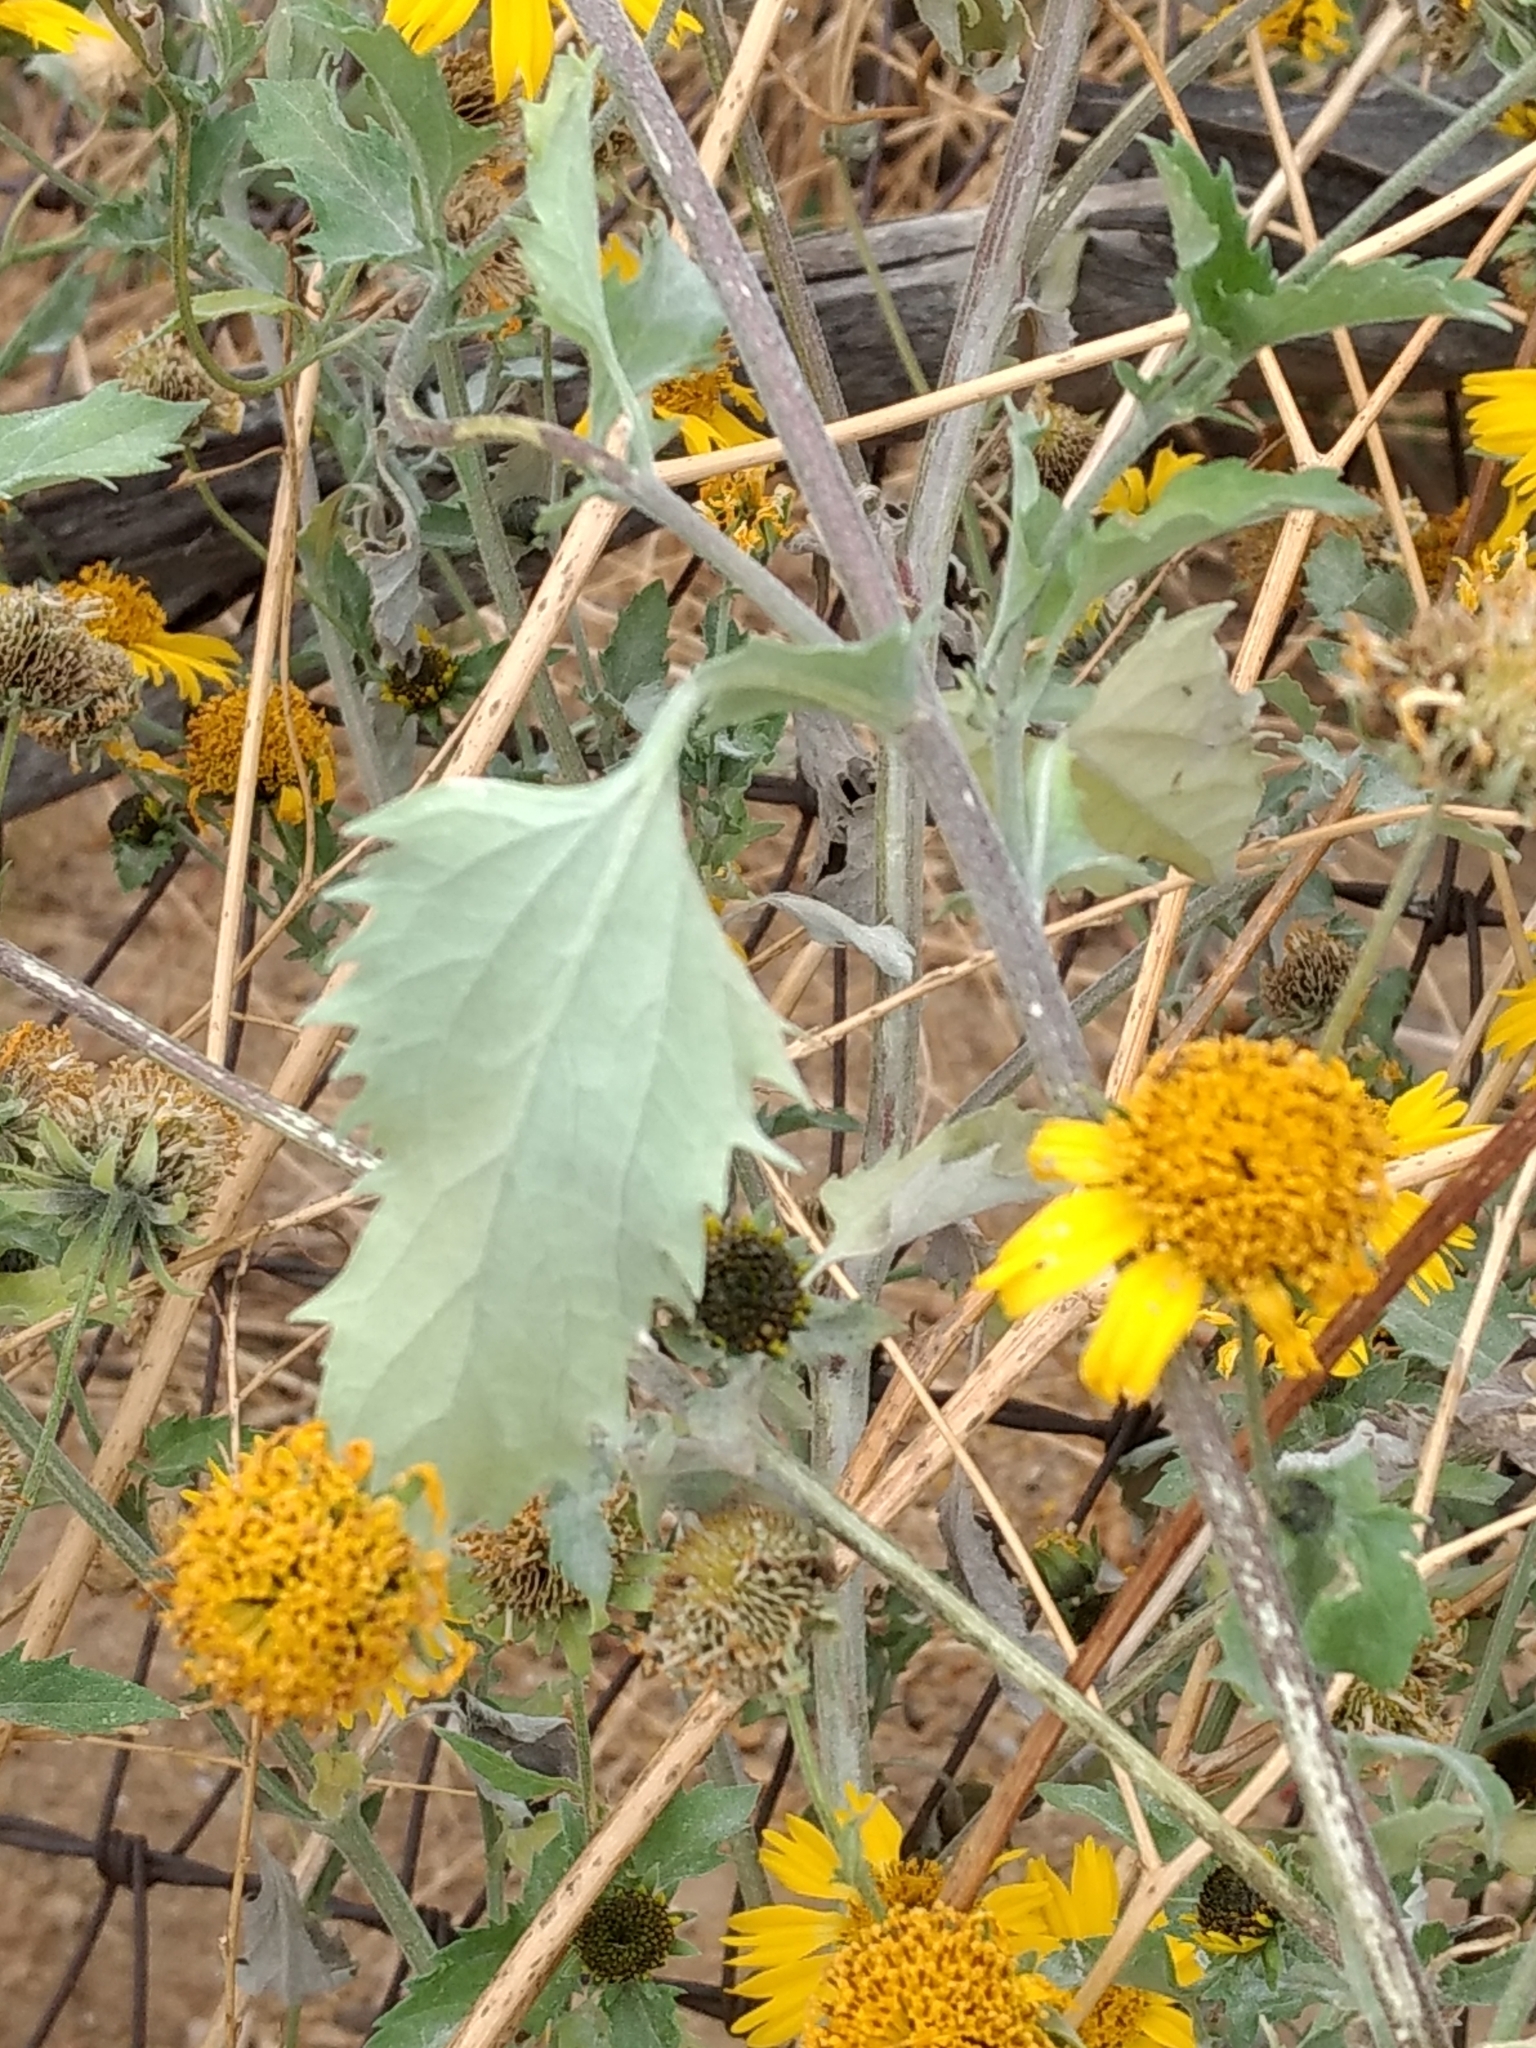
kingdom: Plantae
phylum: Tracheophyta
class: Magnoliopsida
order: Asterales
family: Asteraceae
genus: Verbesina
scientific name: Verbesina encelioides
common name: Golden crownbeard
